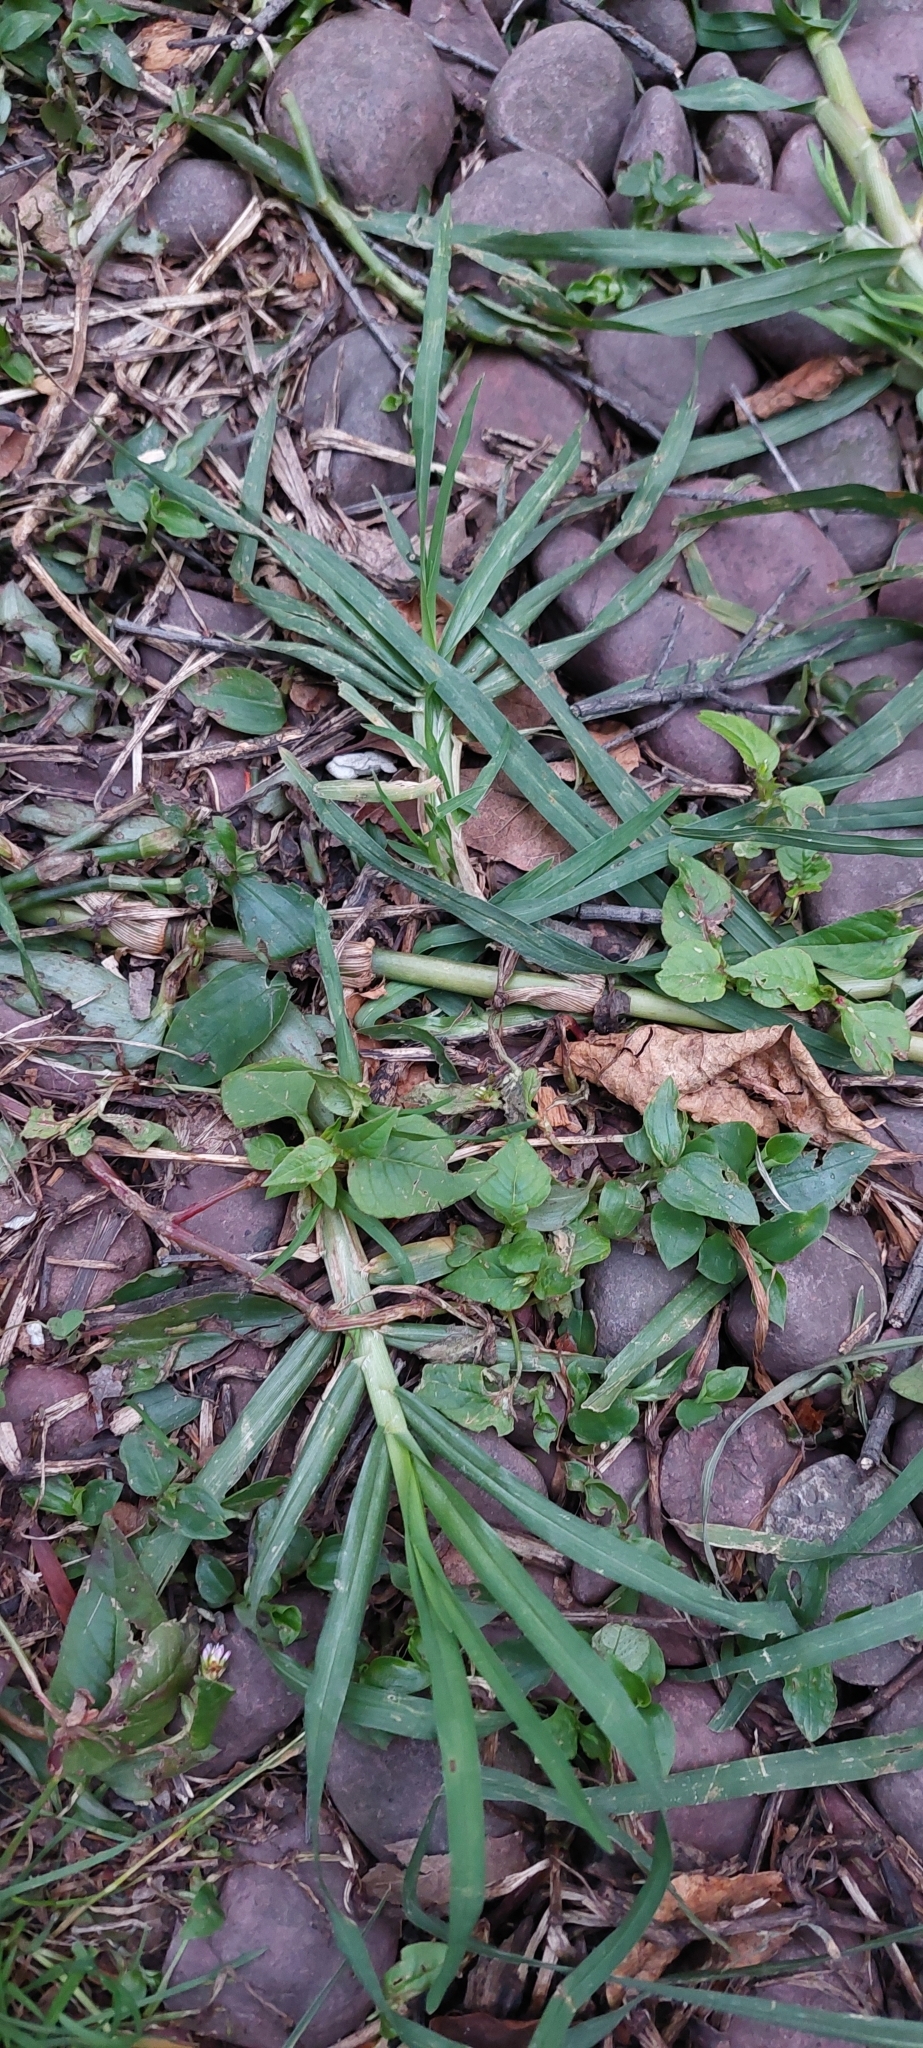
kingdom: Plantae
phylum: Tracheophyta
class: Liliopsida
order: Poales
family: Poaceae
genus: Cenchrus
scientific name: Cenchrus clandestinus
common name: Kikuyugrass
